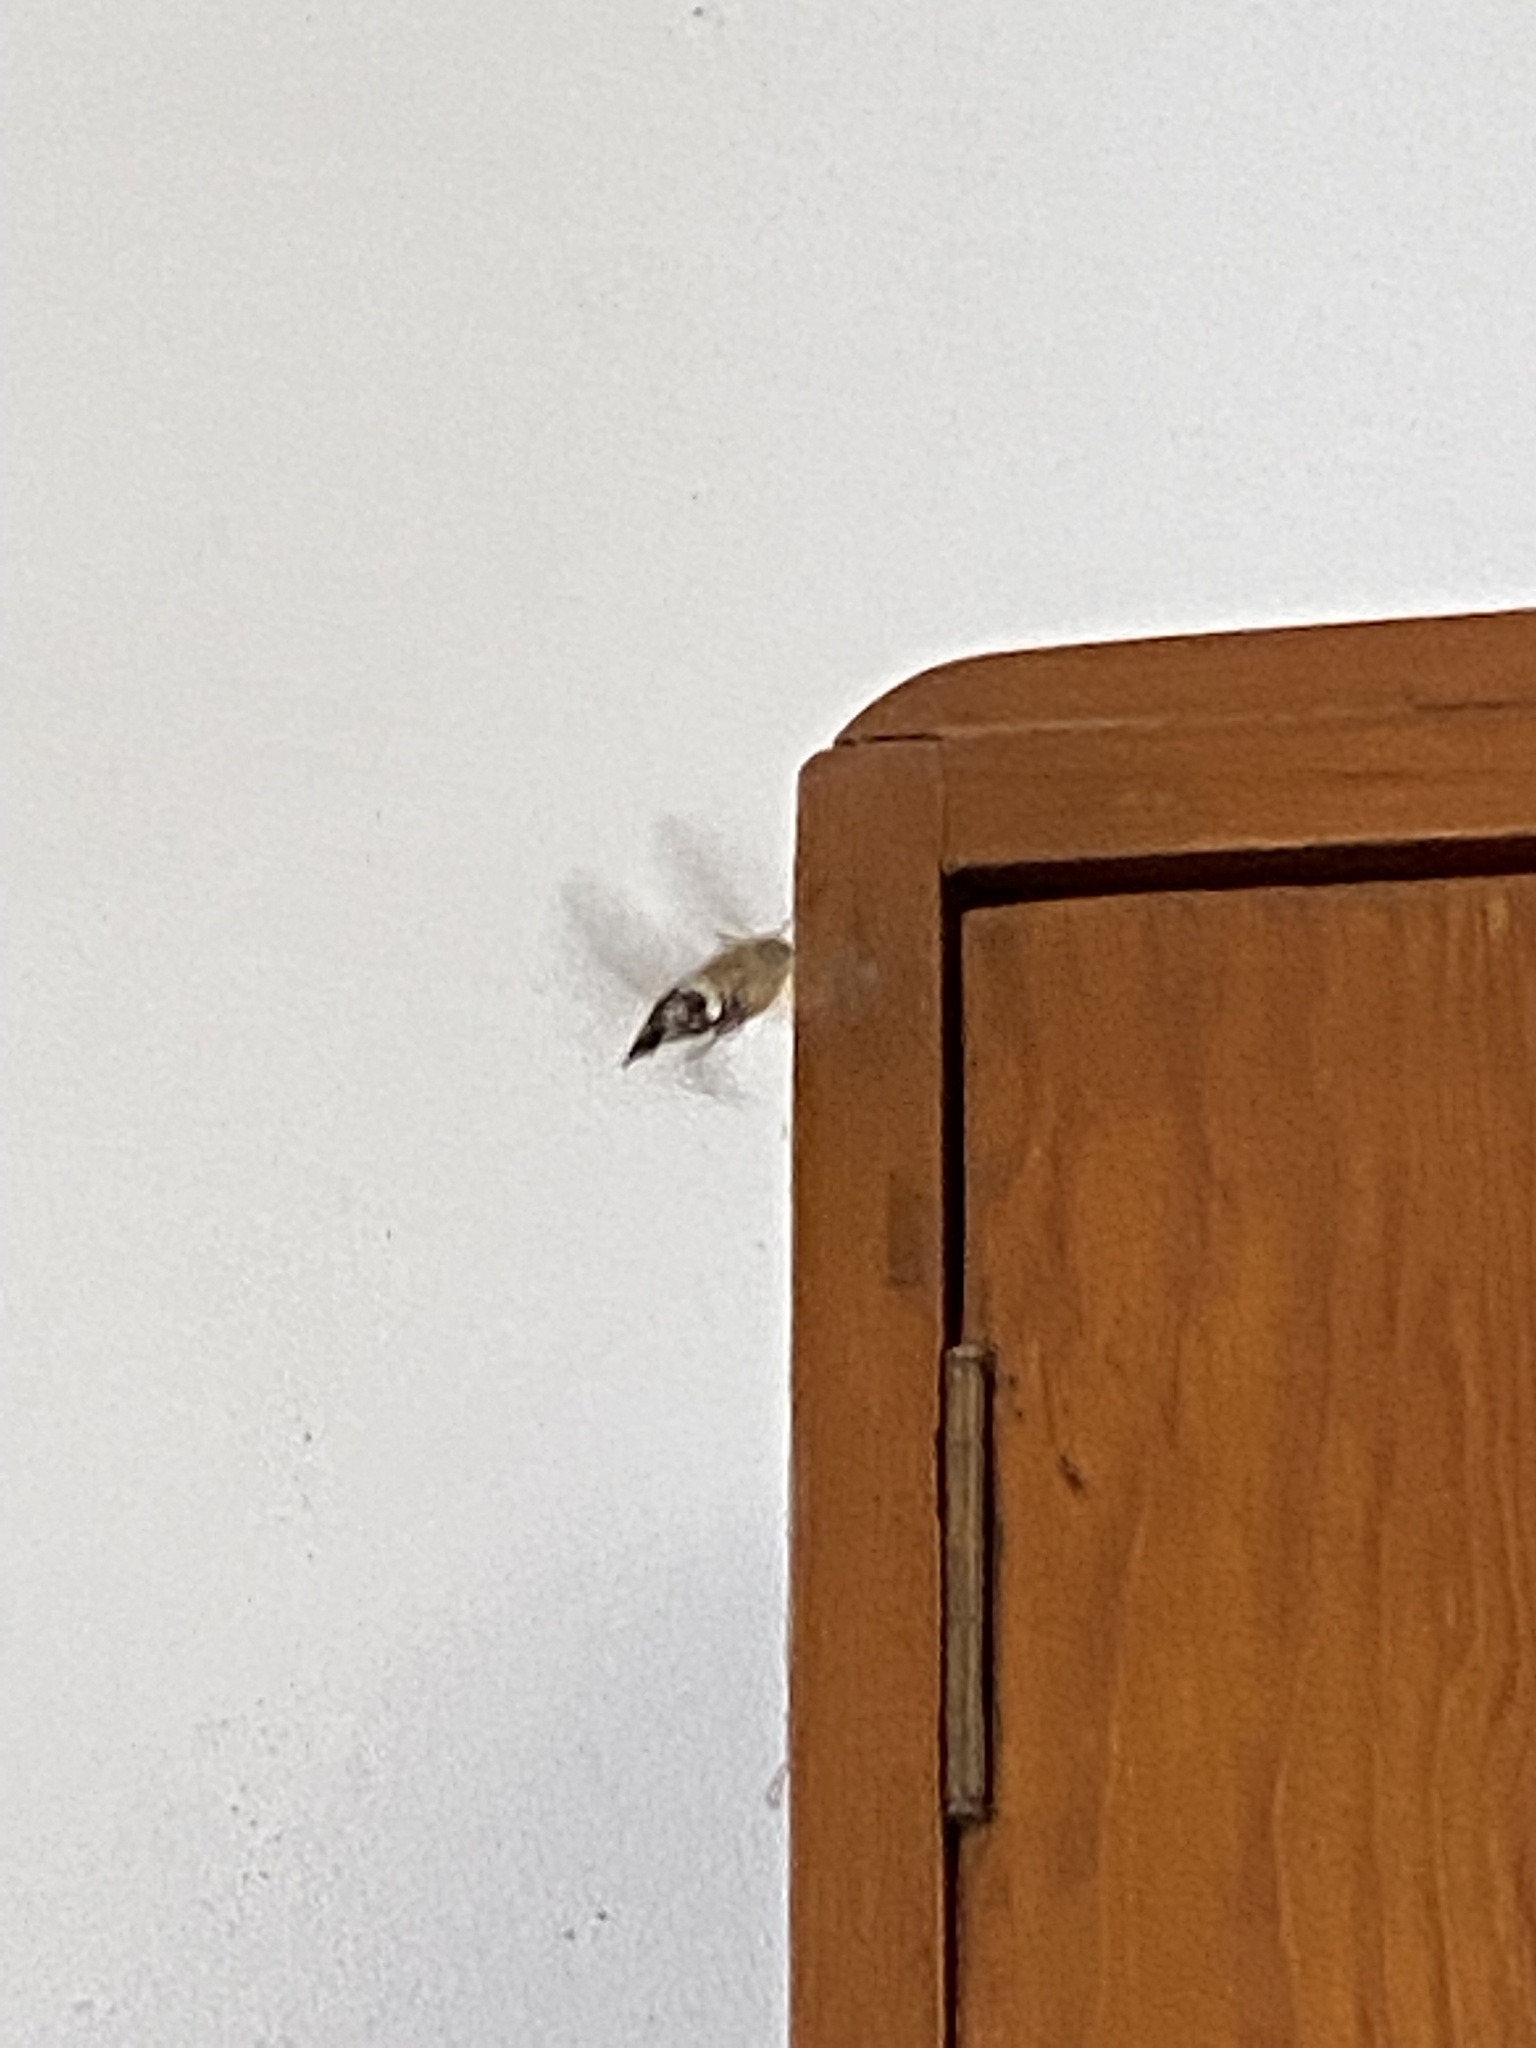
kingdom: Animalia
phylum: Arthropoda
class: Insecta
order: Lepidoptera
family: Sphingidae
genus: Macroglossum
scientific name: Macroglossum stellatarum
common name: Humming-bird hawk-moth
